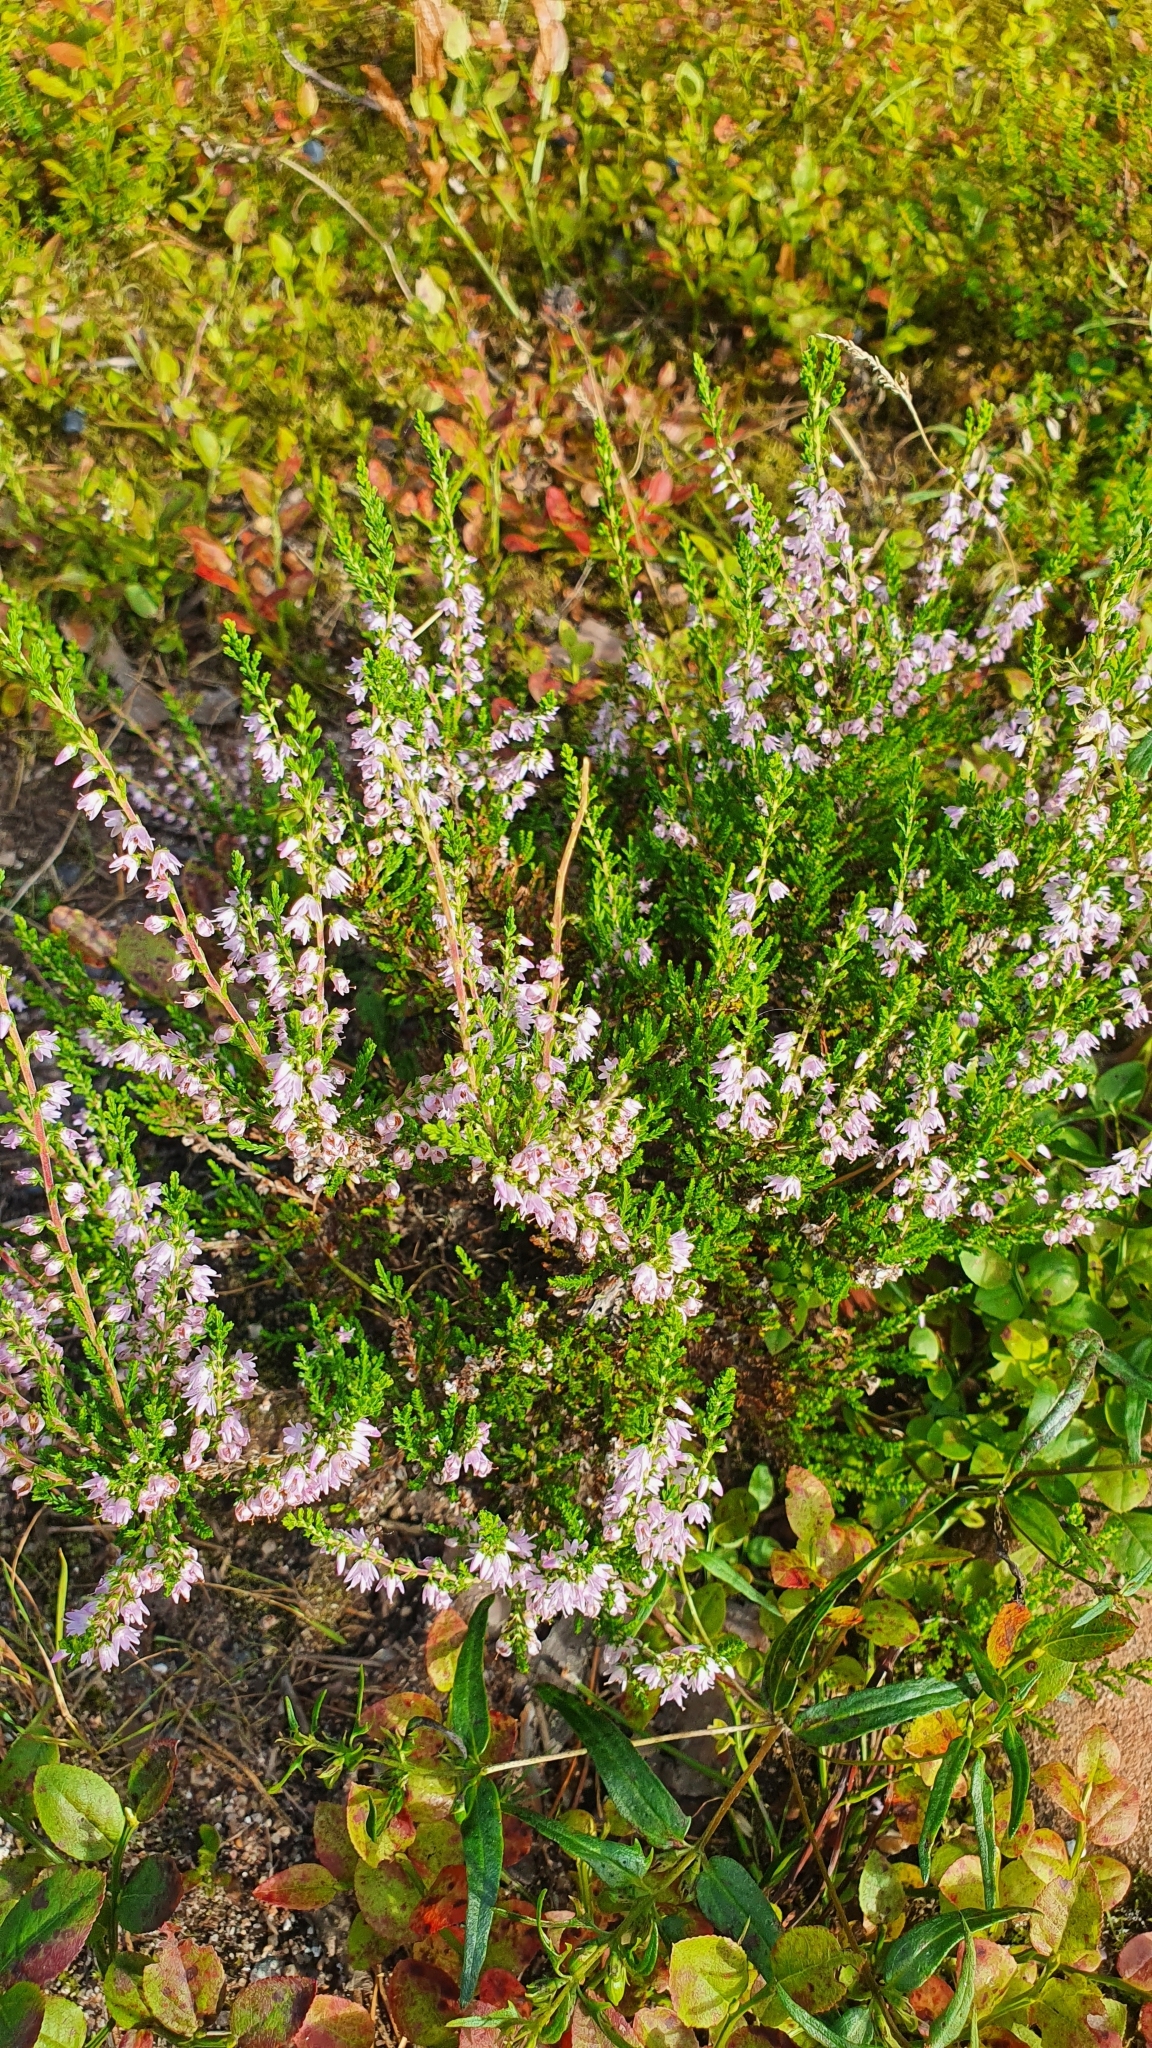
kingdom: Plantae
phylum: Tracheophyta
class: Magnoliopsida
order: Ericales
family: Ericaceae
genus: Calluna
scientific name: Calluna vulgaris
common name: Heather
